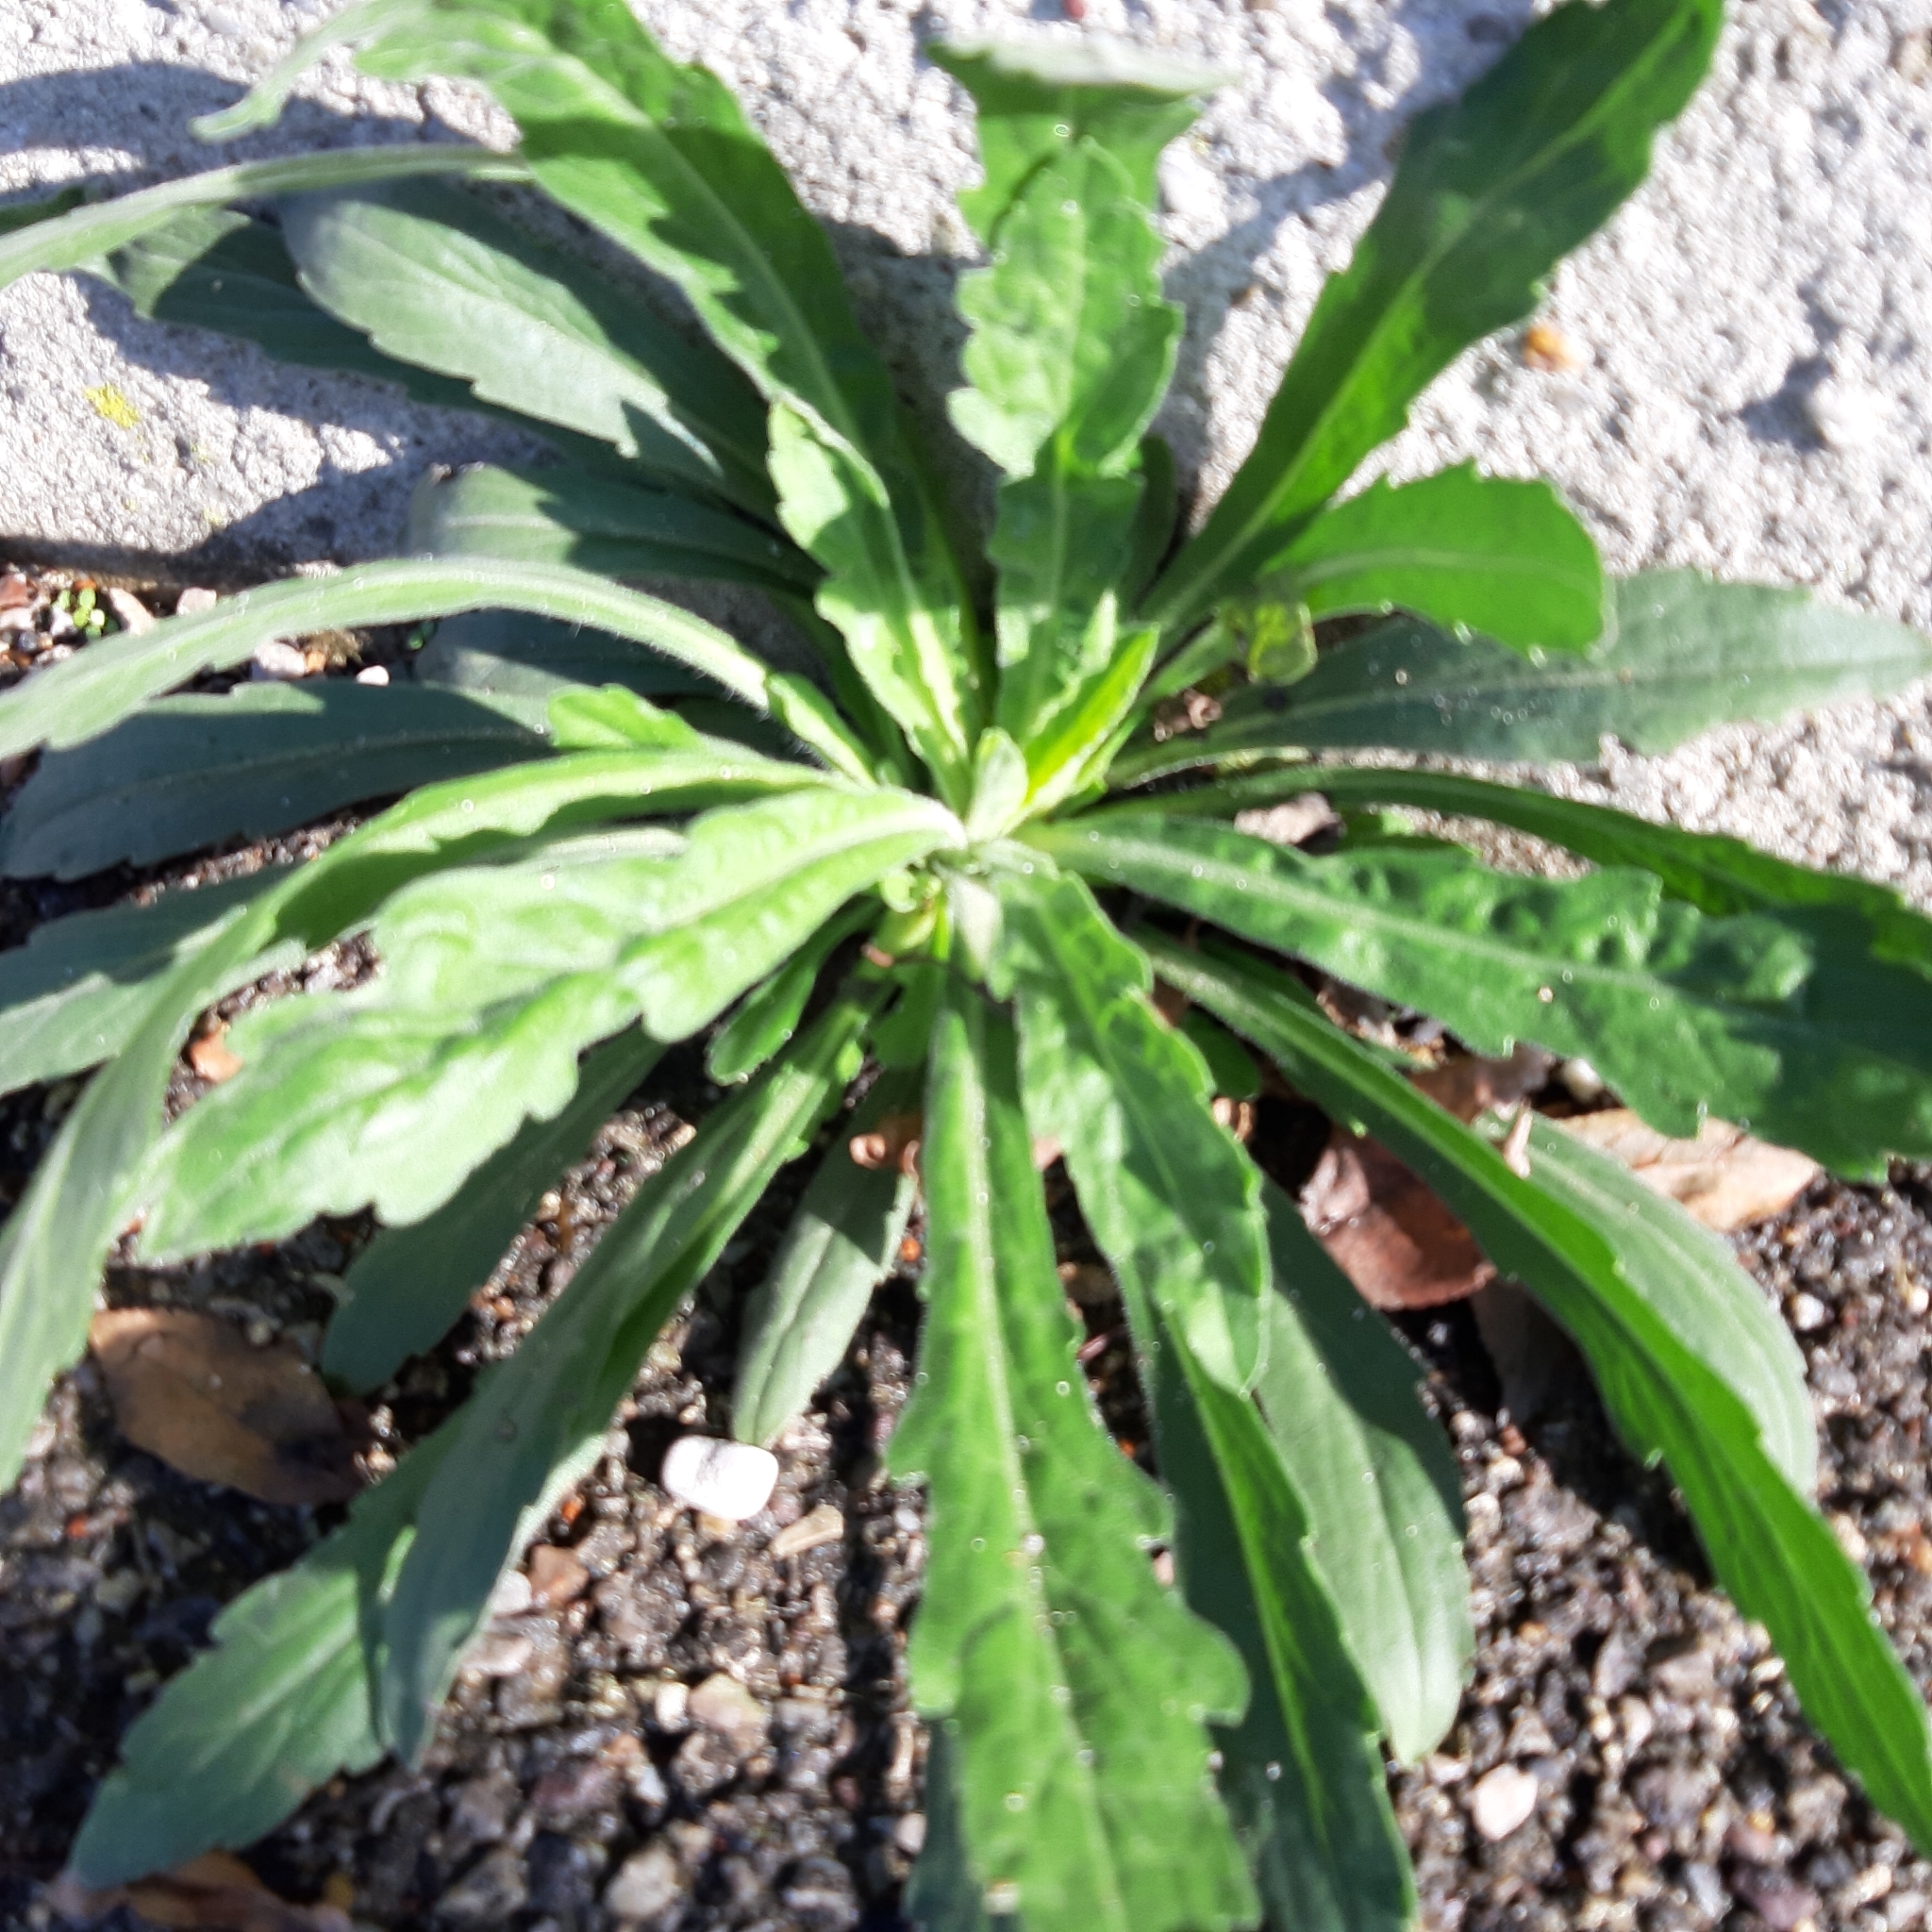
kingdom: Plantae
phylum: Tracheophyta
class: Magnoliopsida
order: Asterales
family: Asteraceae
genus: Erigeron
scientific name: Erigeron sumatrensis
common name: Daisy
